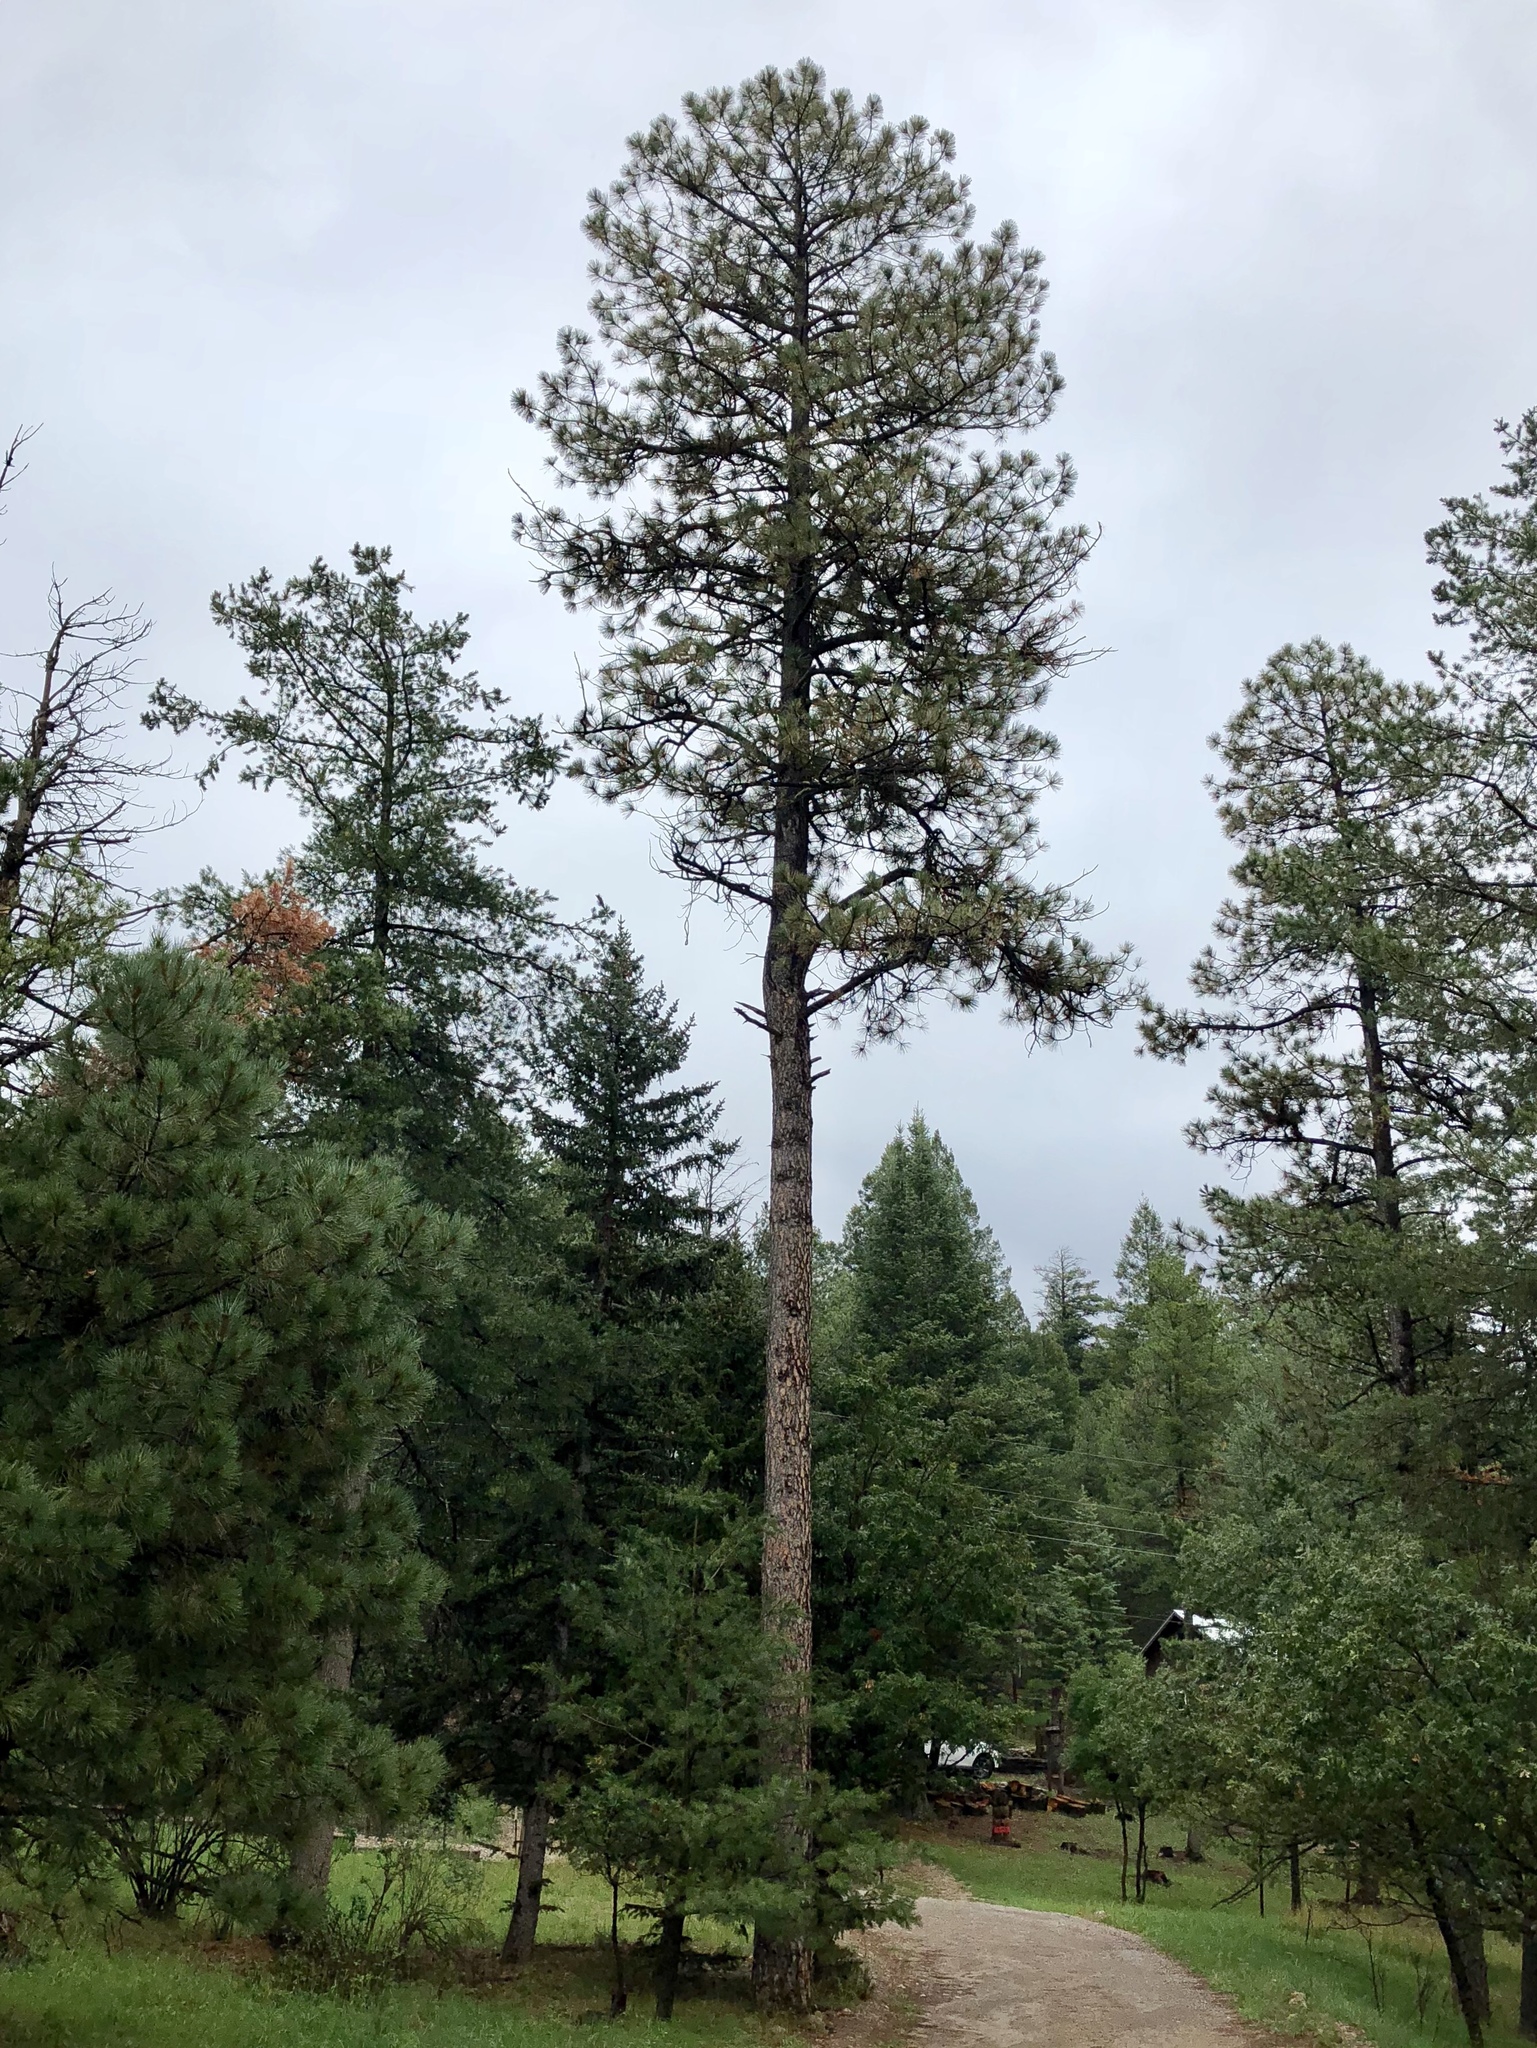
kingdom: Plantae
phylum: Tracheophyta
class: Pinopsida
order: Pinales
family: Pinaceae
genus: Pinus
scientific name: Pinus ponderosa
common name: Western yellow-pine
